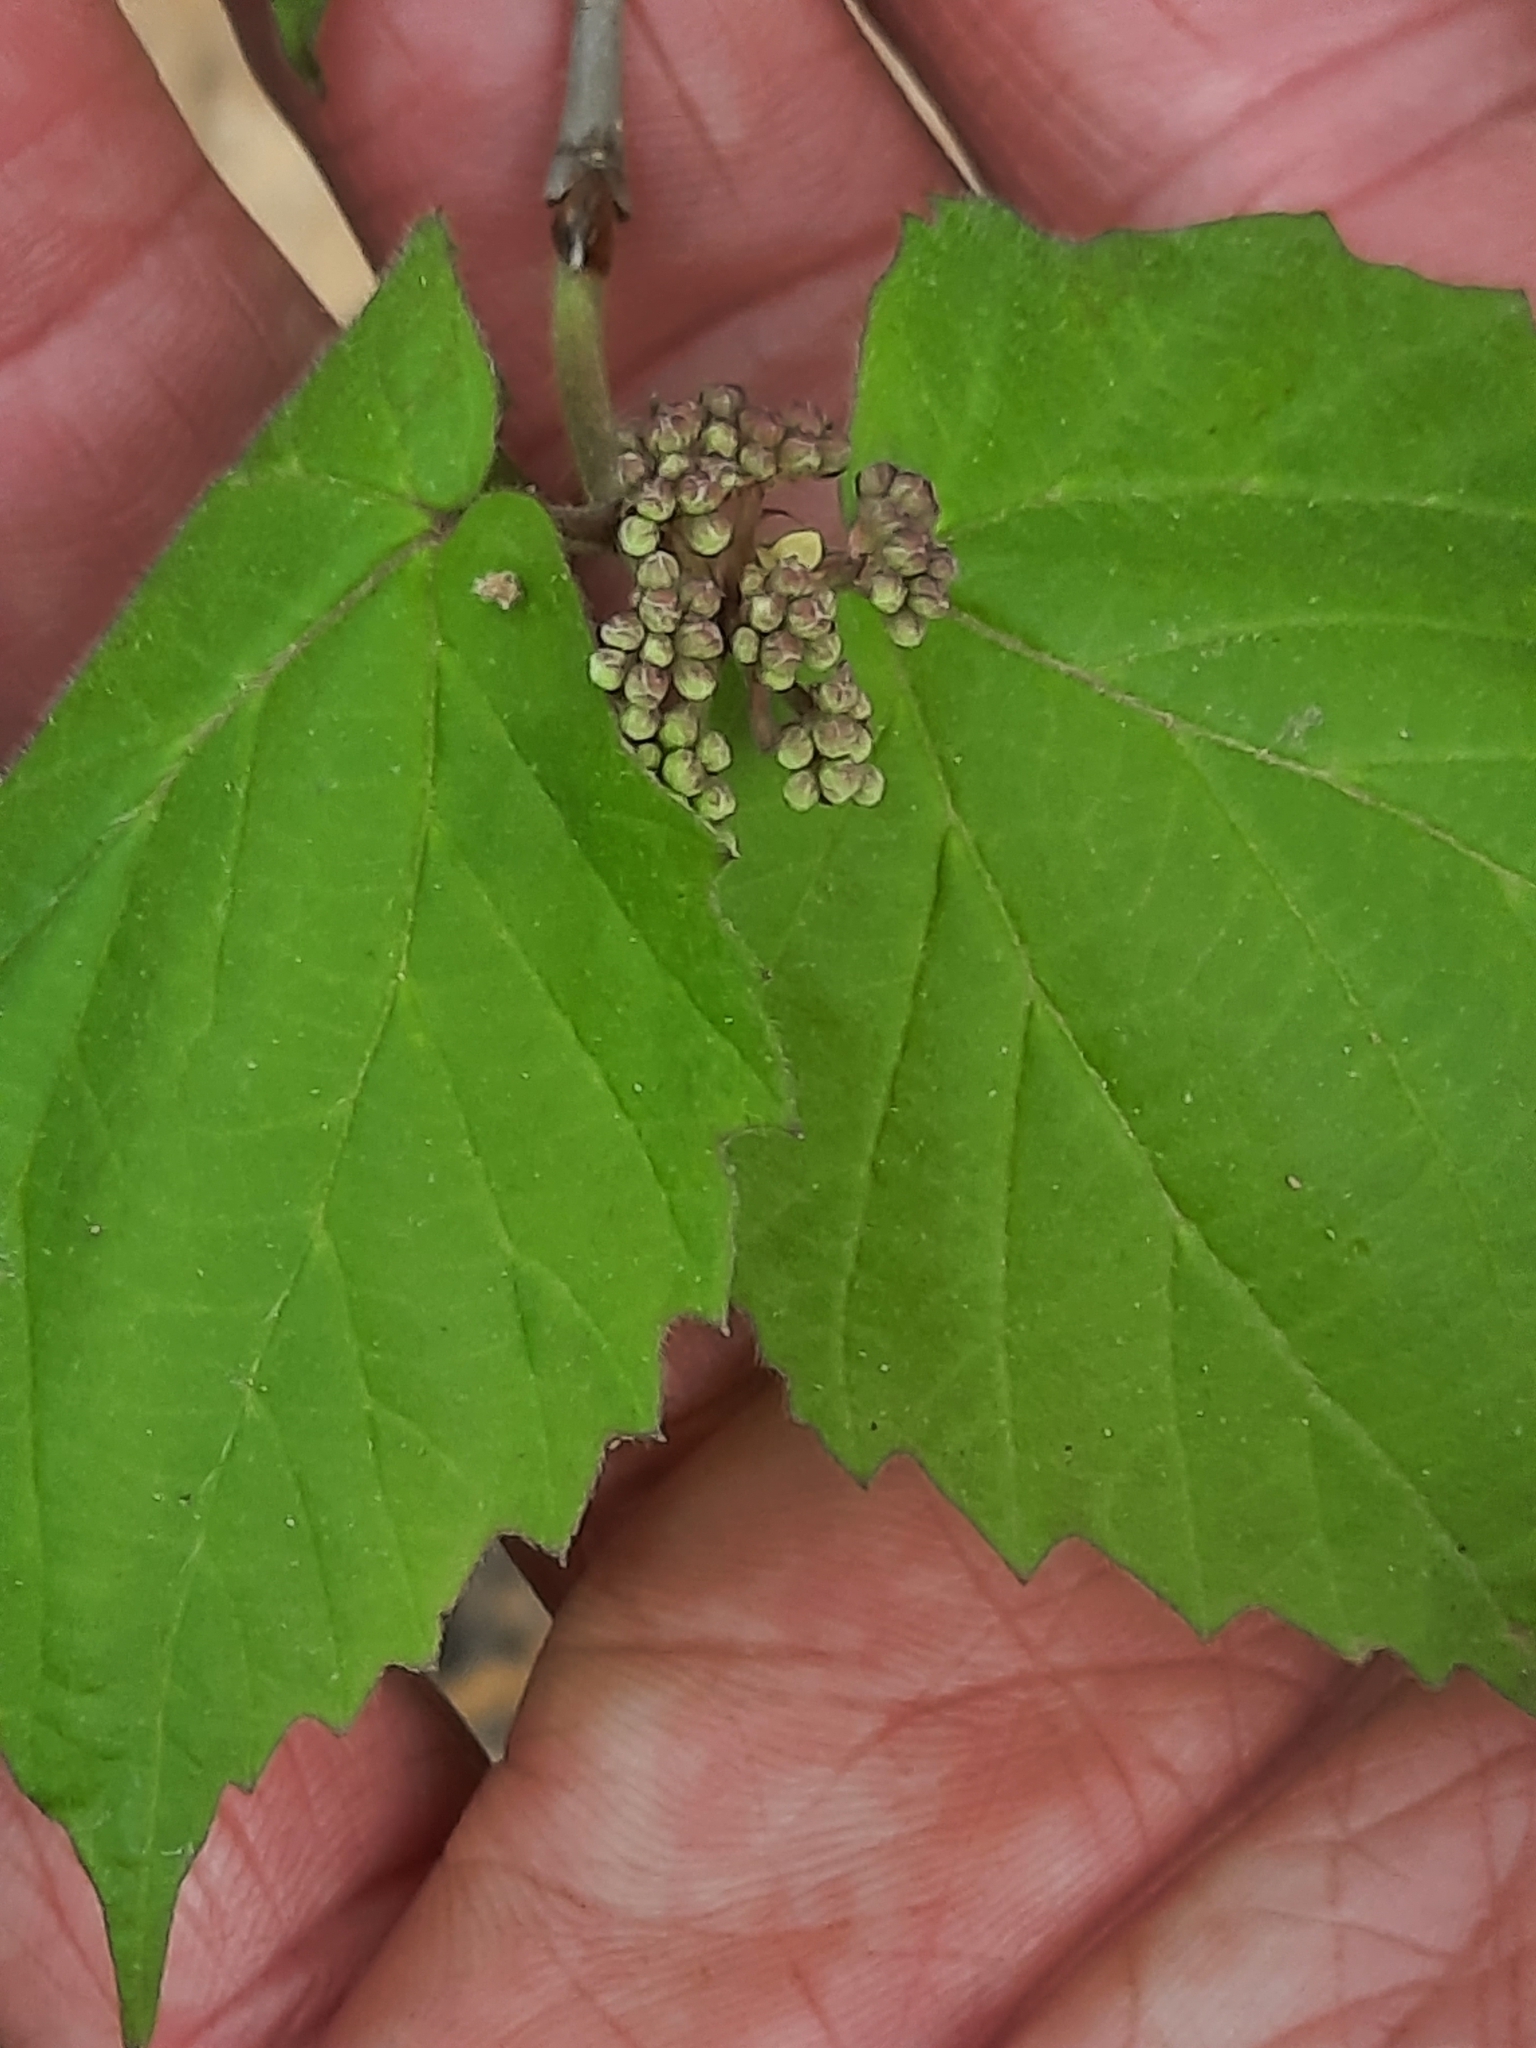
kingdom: Plantae
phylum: Tracheophyta
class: Magnoliopsida
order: Dipsacales
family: Viburnaceae
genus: Viburnum
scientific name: Viburnum acerifolium
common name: Dockmackie
